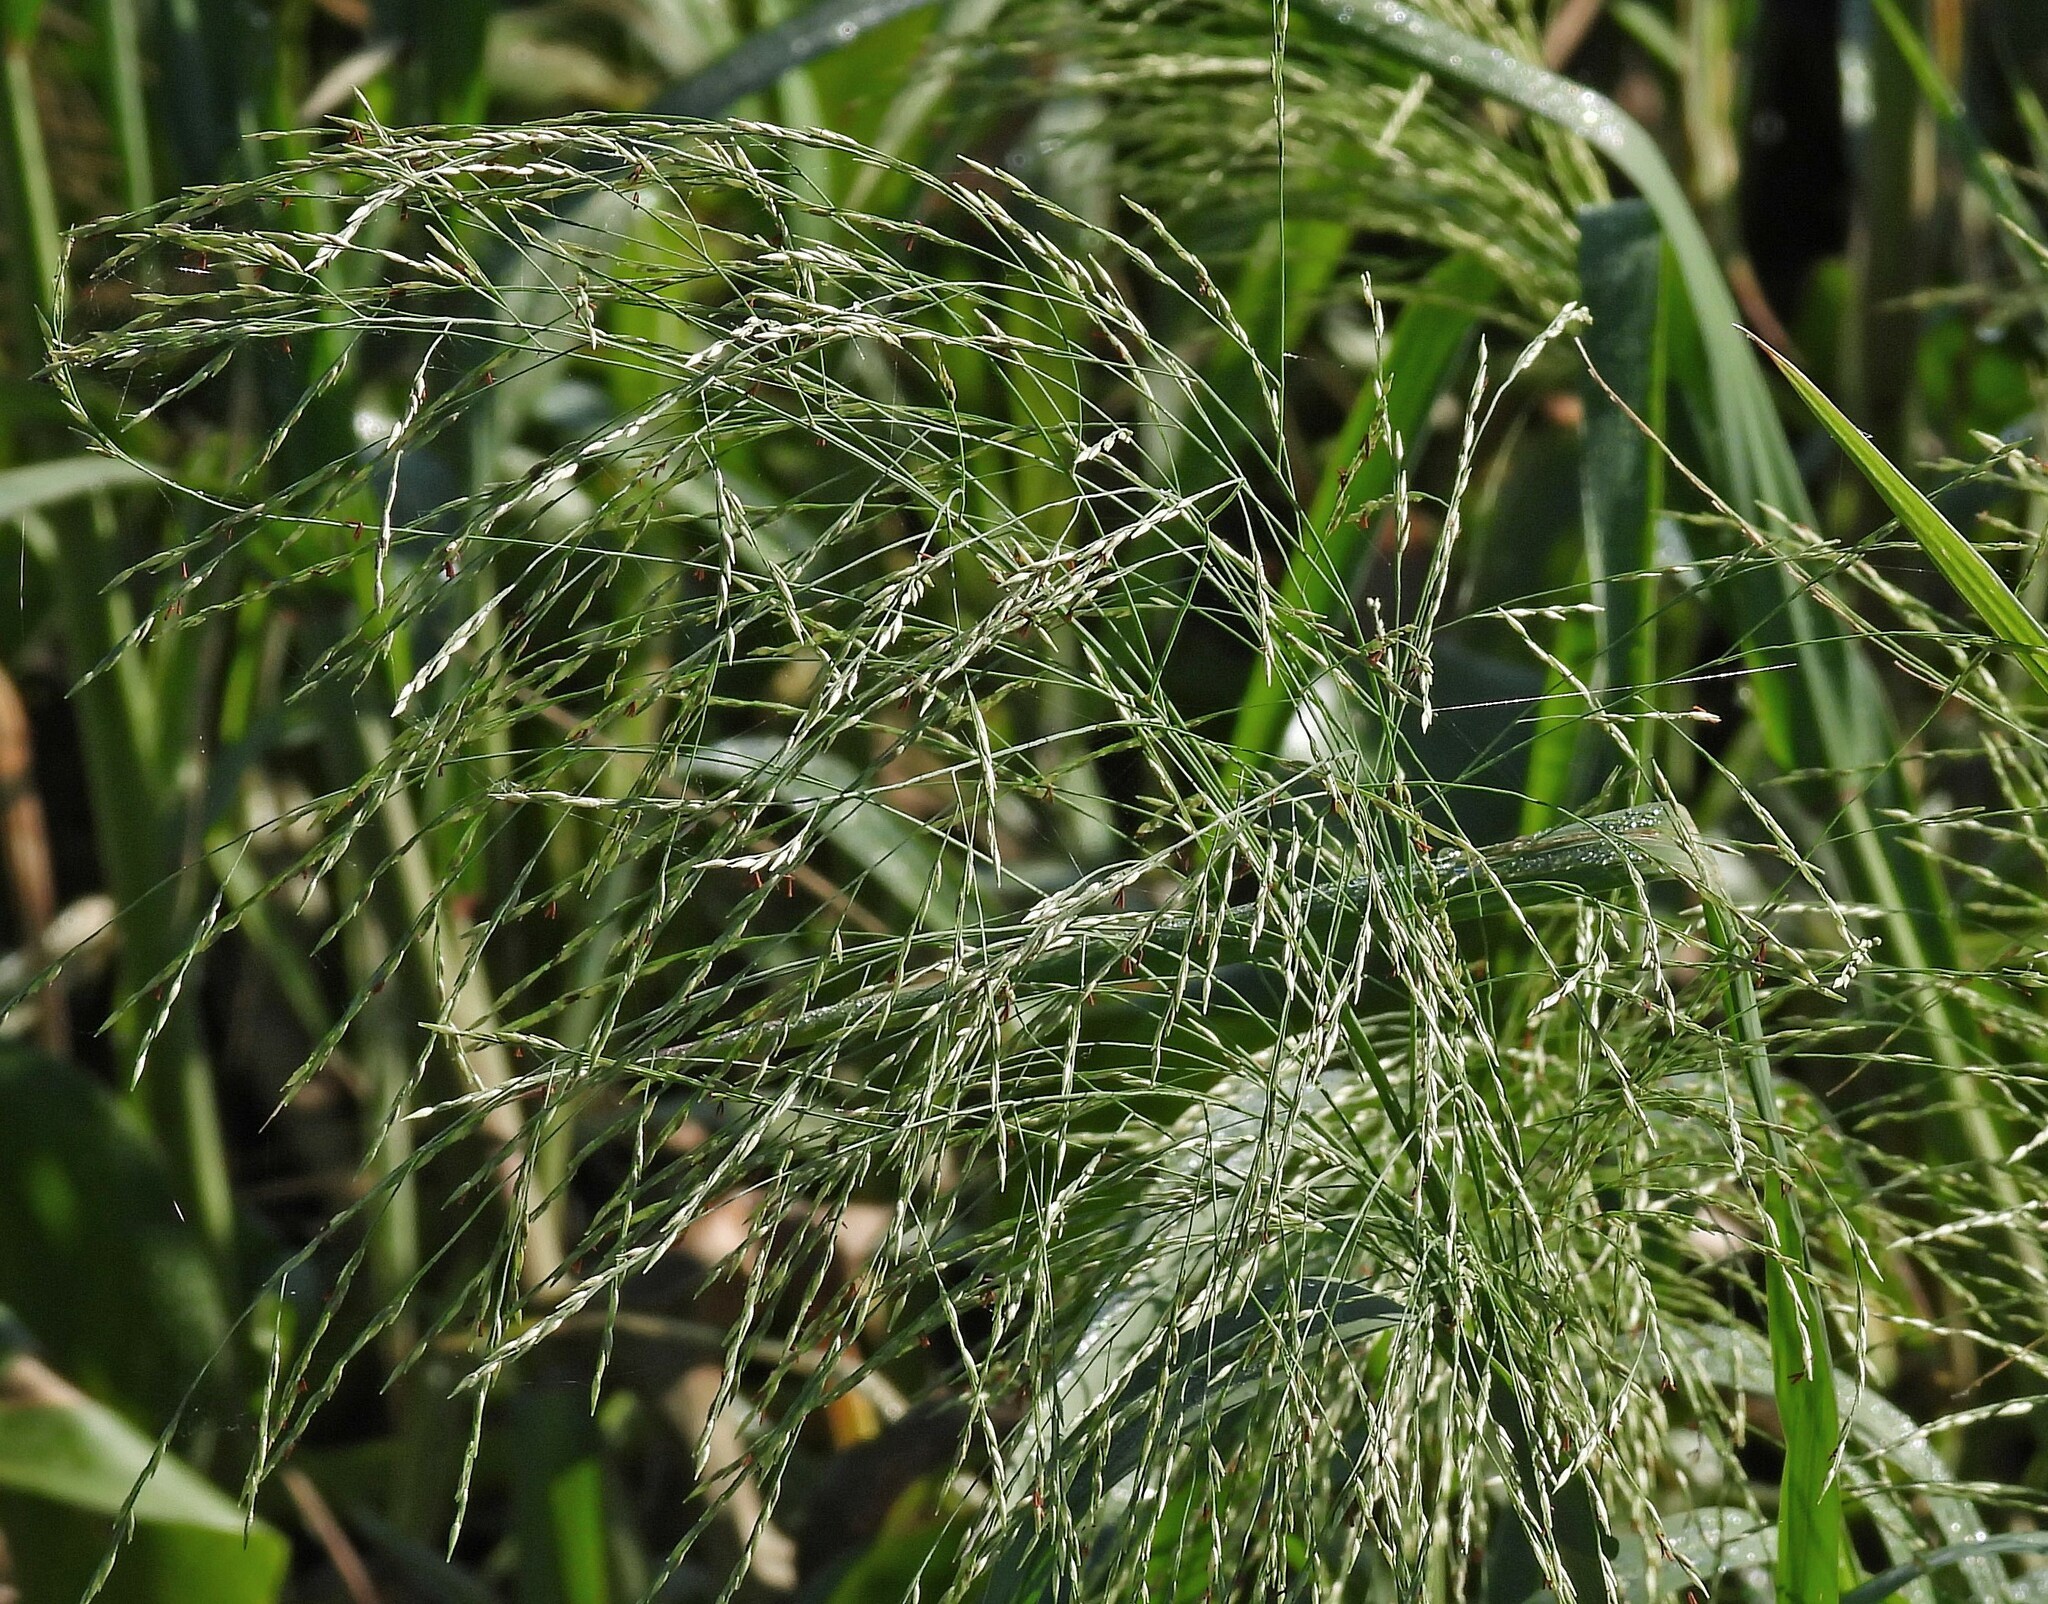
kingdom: Plantae
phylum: Tracheophyta
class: Liliopsida
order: Poales
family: Poaceae
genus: Louisiella
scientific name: Louisiella elephantipes
